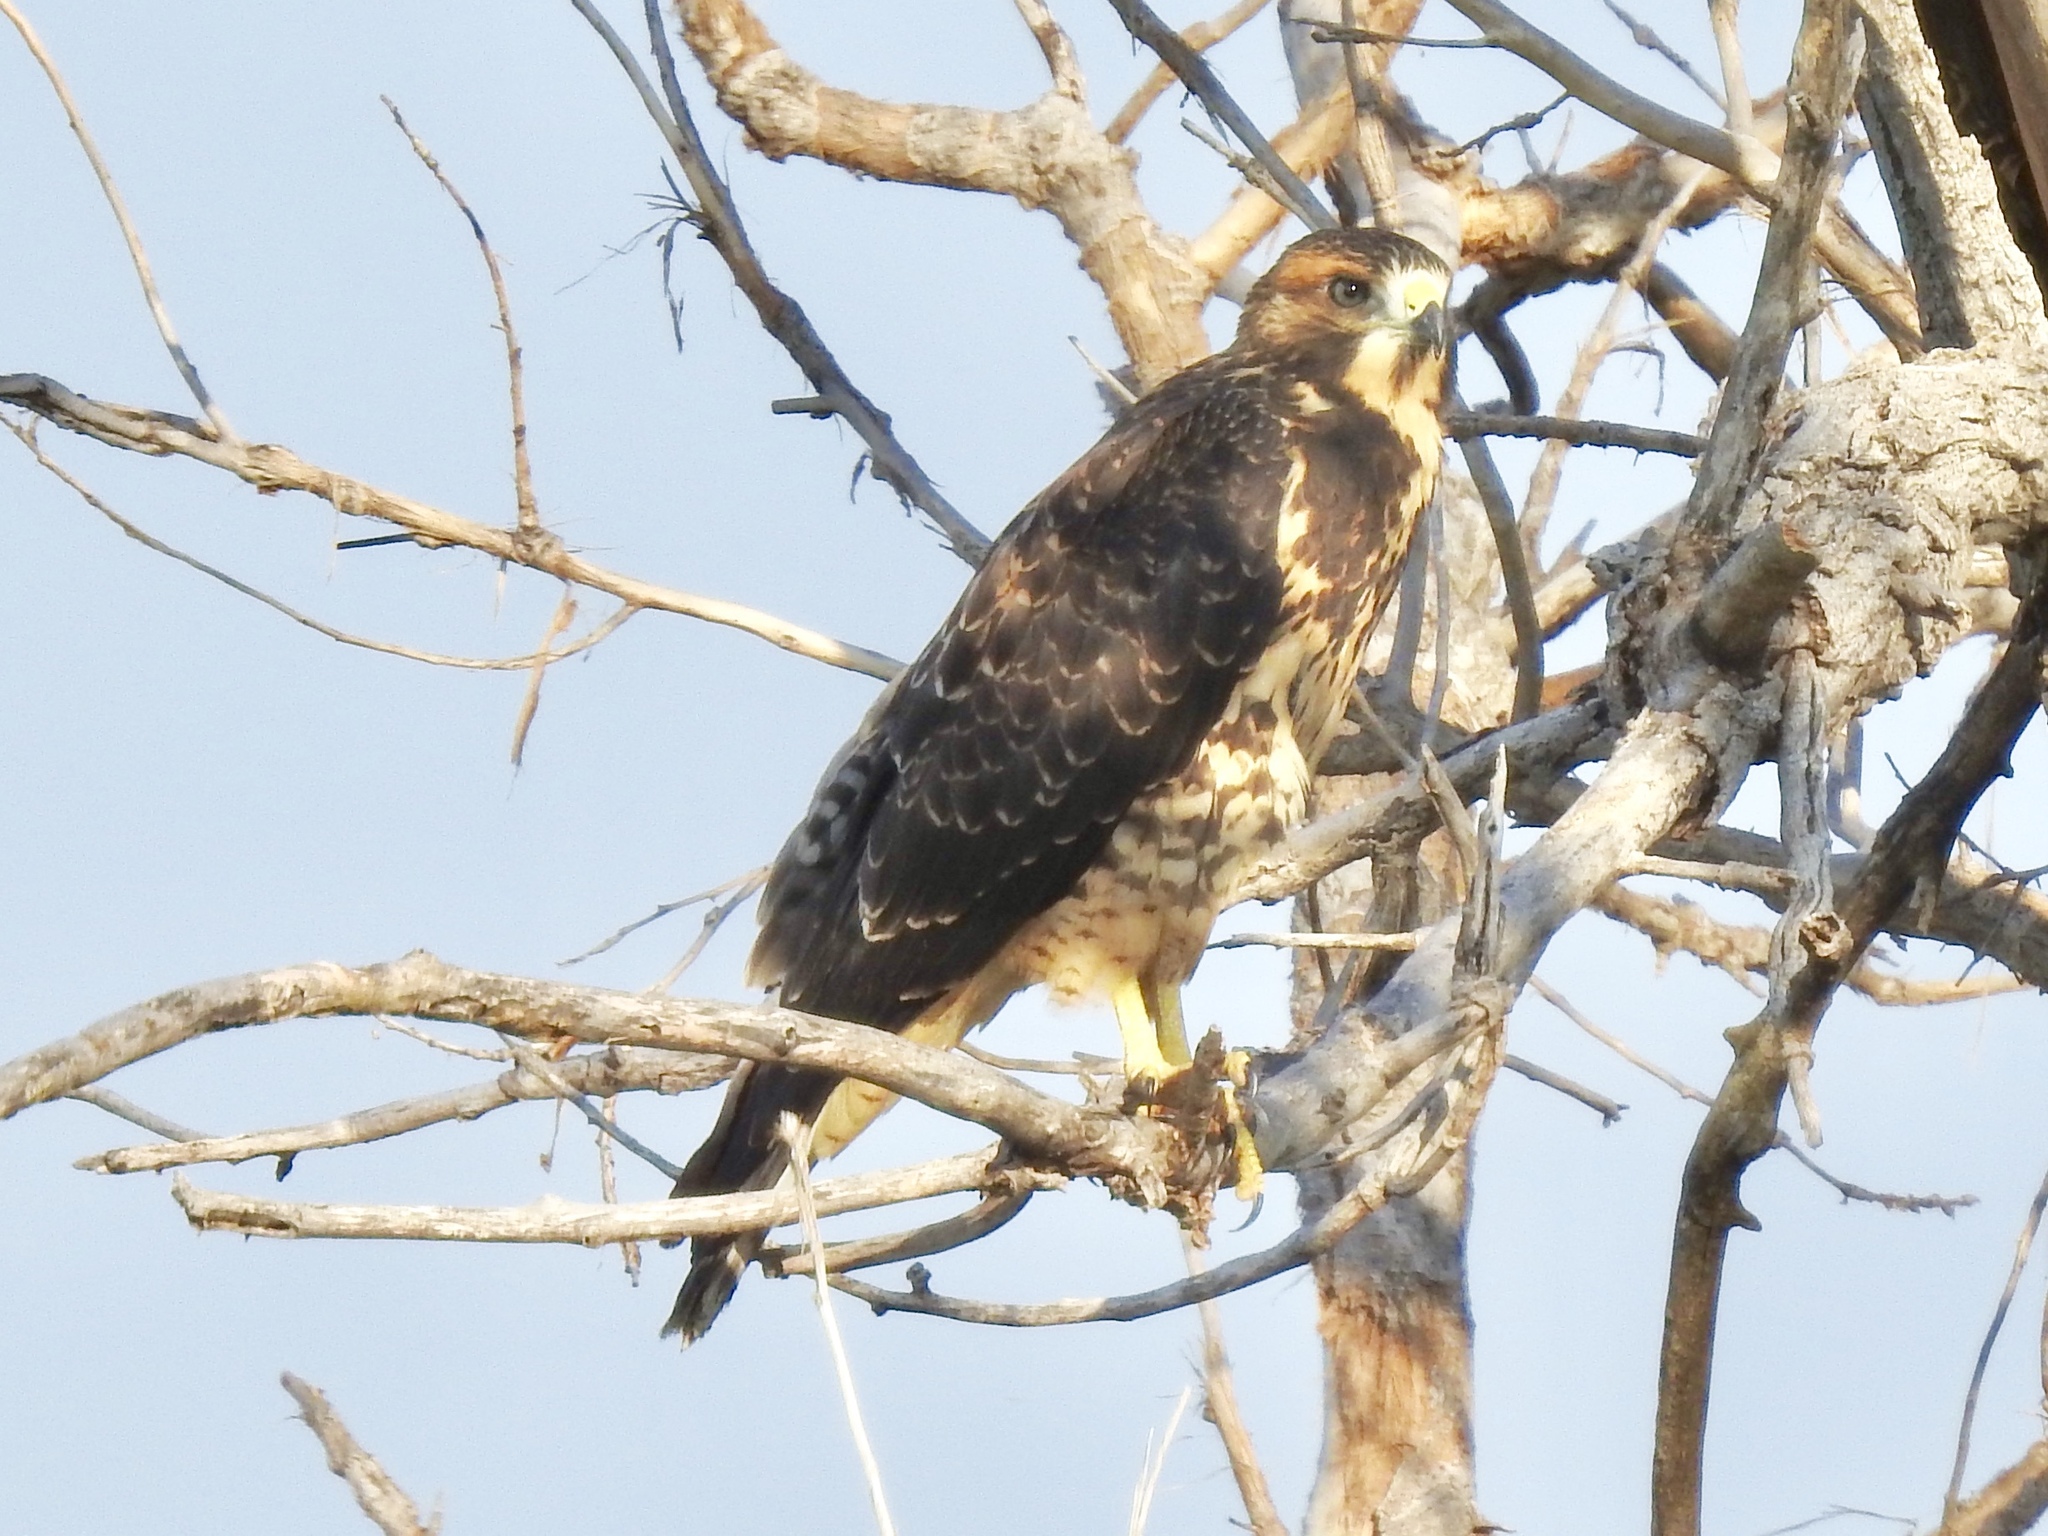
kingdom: Animalia
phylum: Chordata
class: Aves
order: Accipitriformes
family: Accipitridae
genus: Buteo
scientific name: Buteo swainsoni
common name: Swainson's hawk
